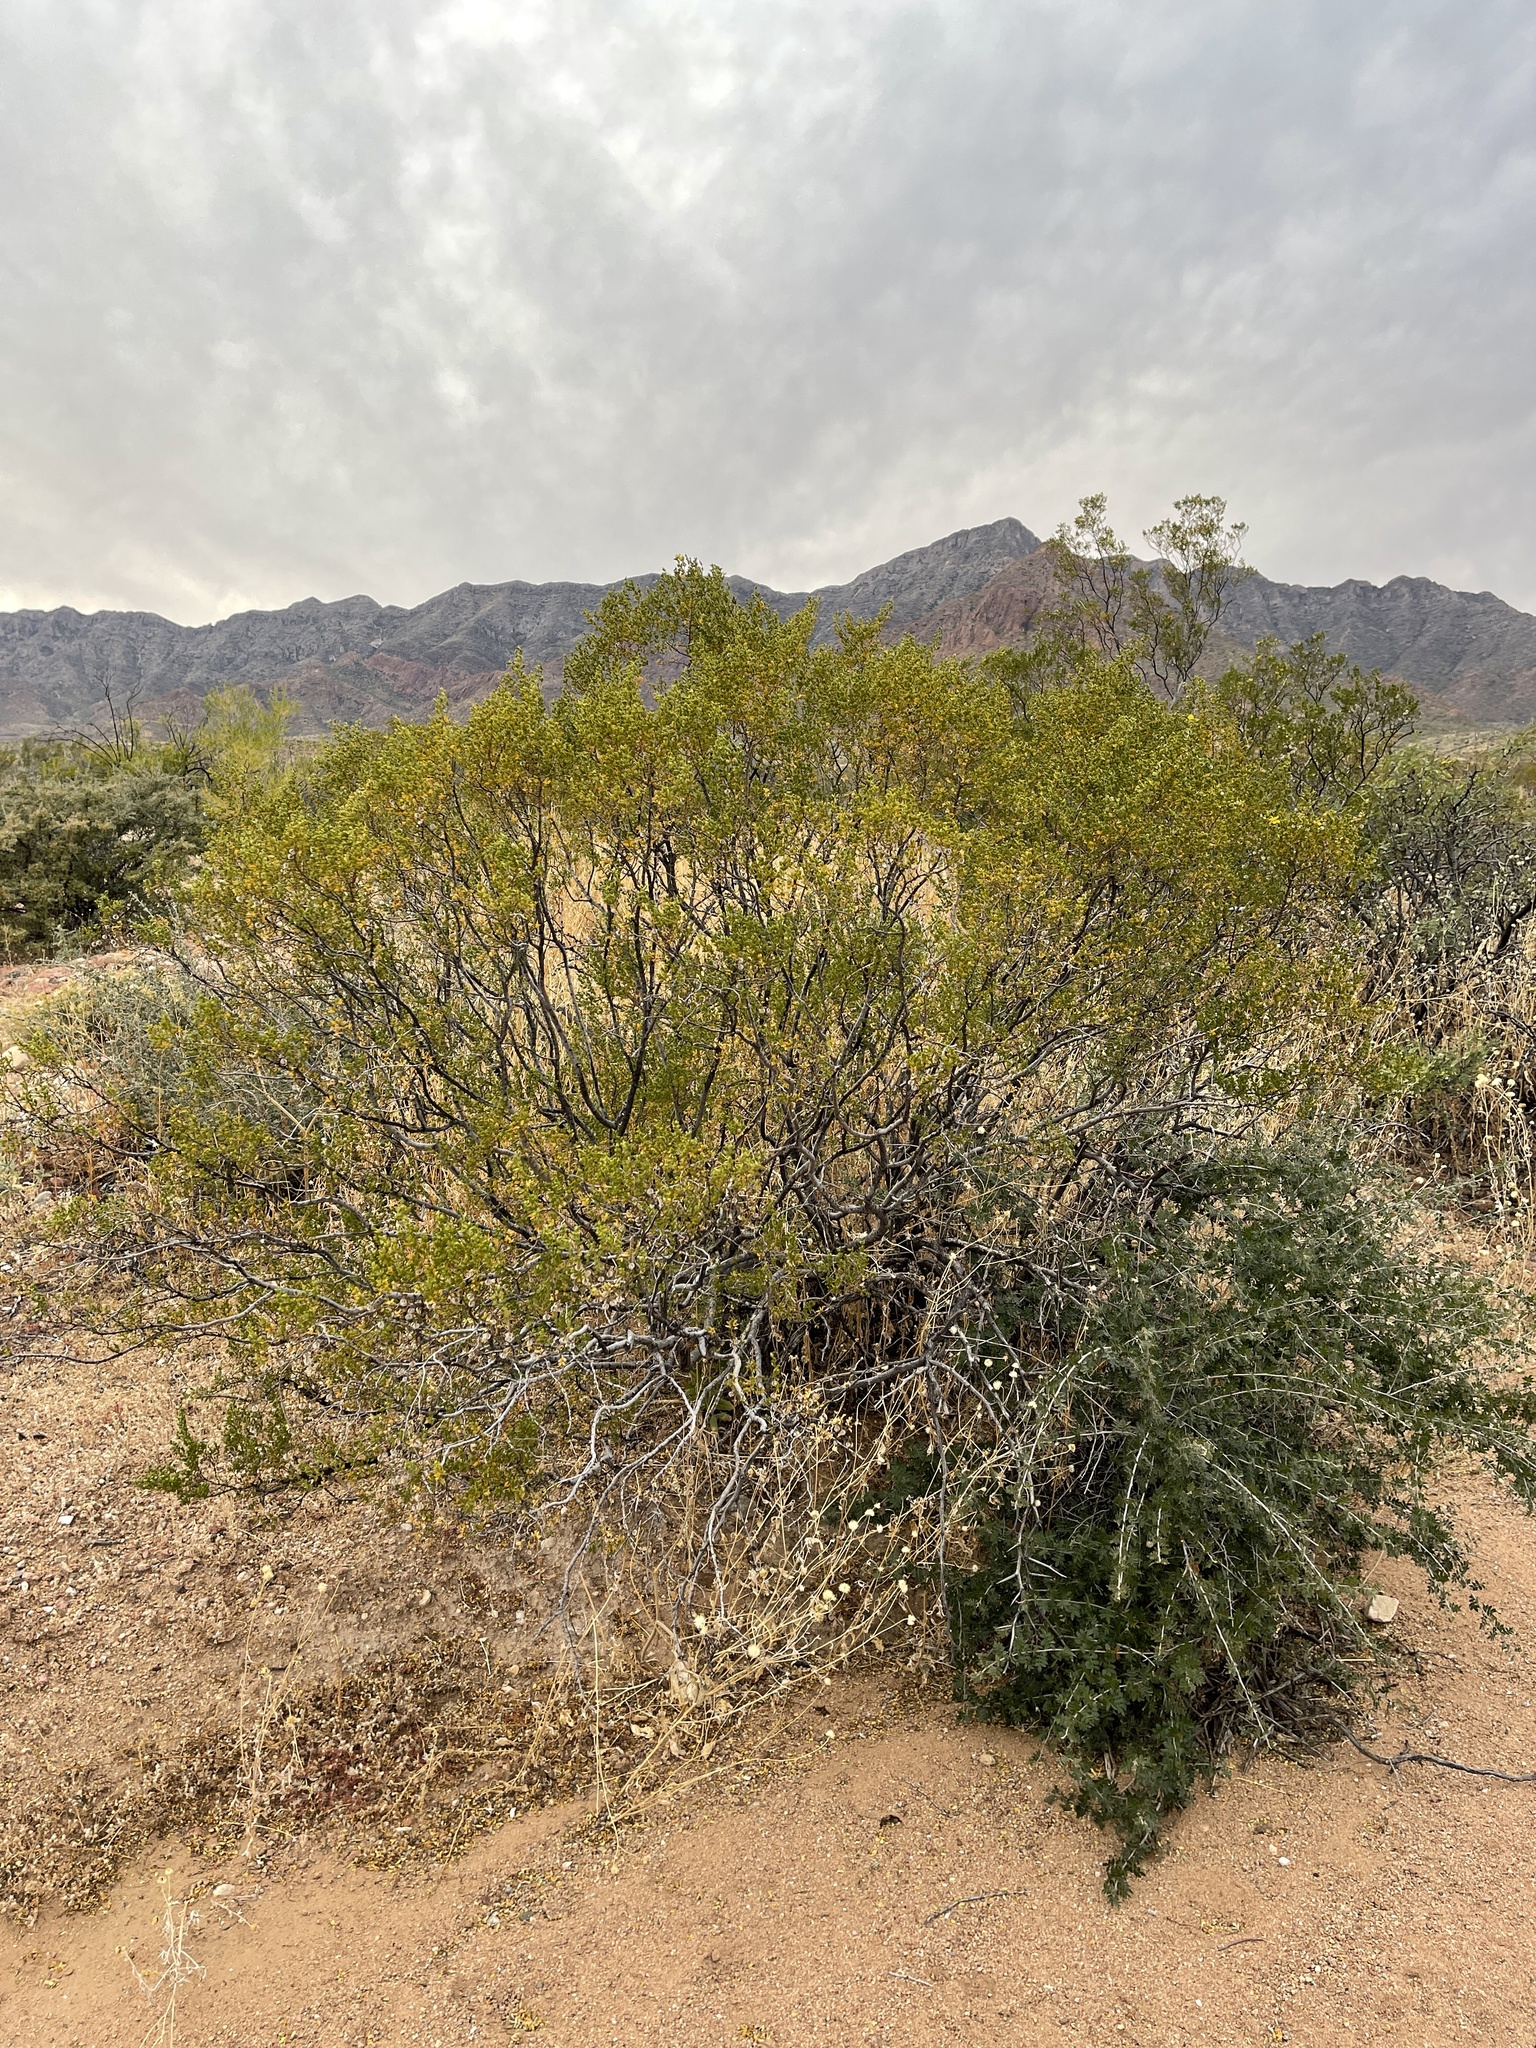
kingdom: Plantae
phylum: Tracheophyta
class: Magnoliopsida
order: Zygophyllales
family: Zygophyllaceae
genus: Larrea
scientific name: Larrea tridentata
